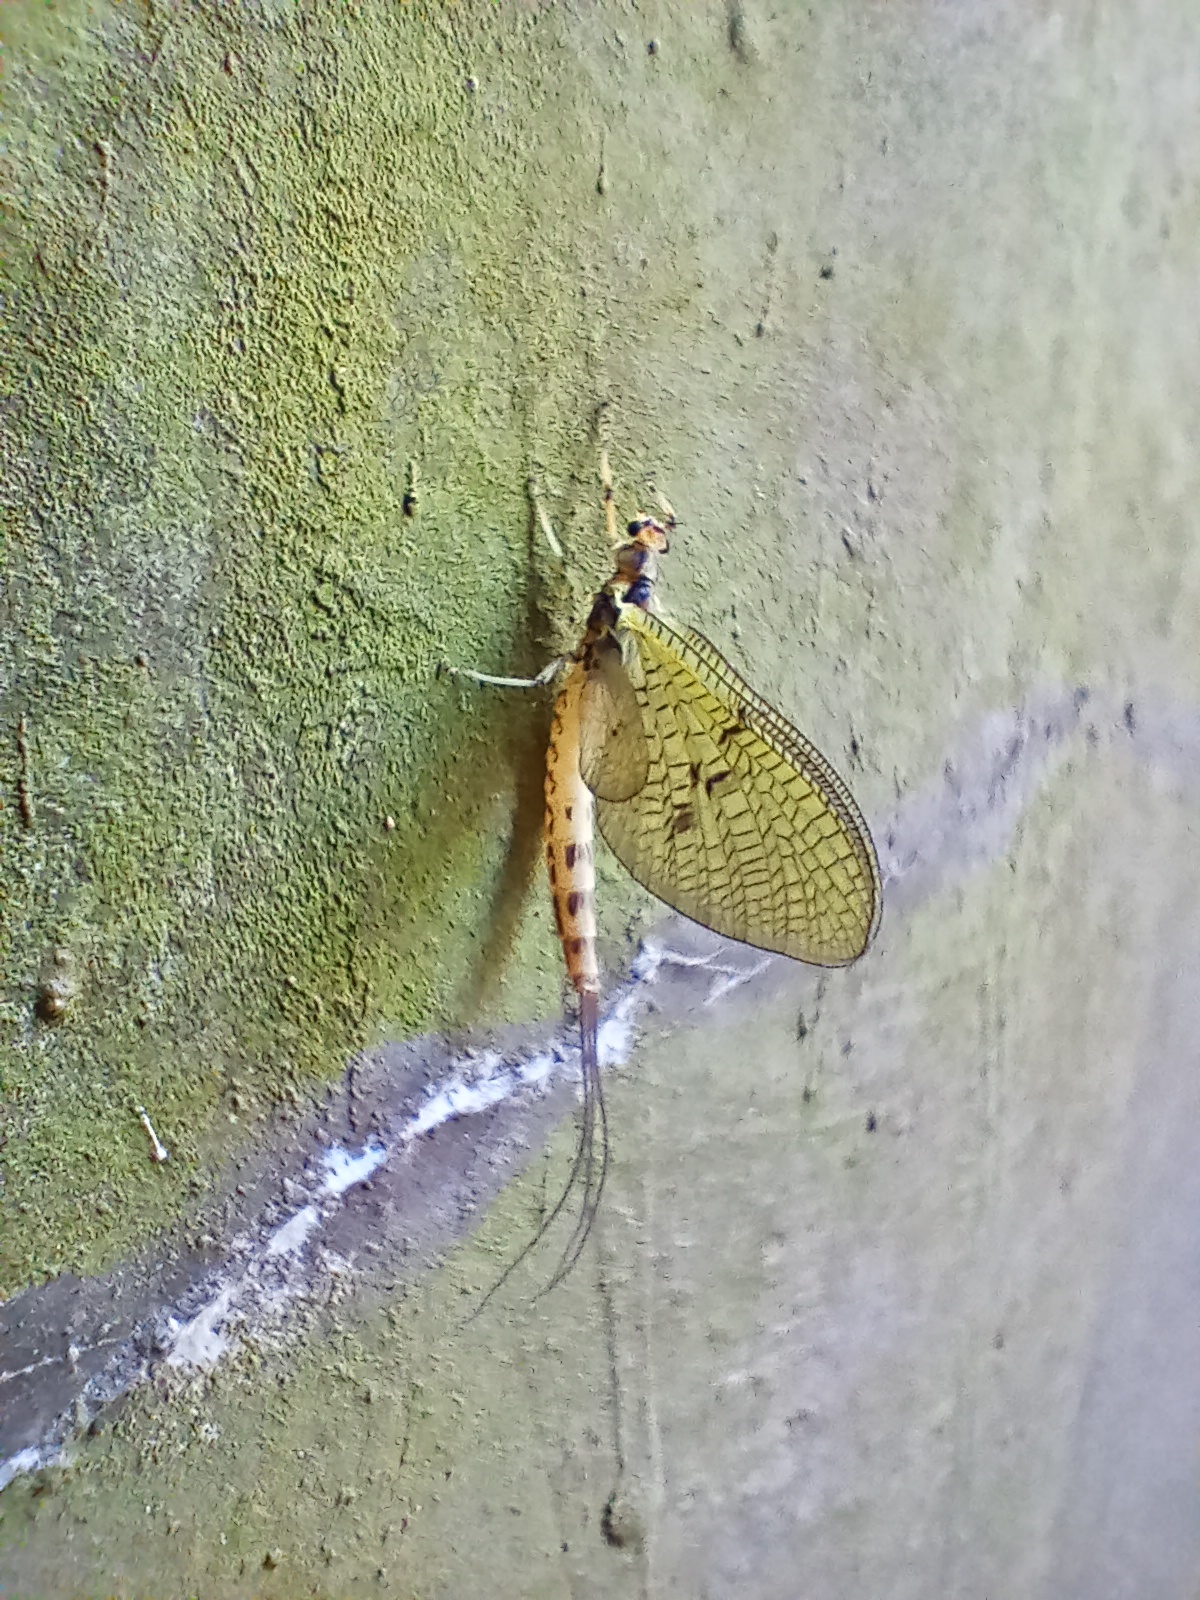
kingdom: Animalia
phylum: Arthropoda
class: Insecta
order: Ephemeroptera
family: Ephemeridae
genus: Ephemera
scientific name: Ephemera danica
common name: Green dun
